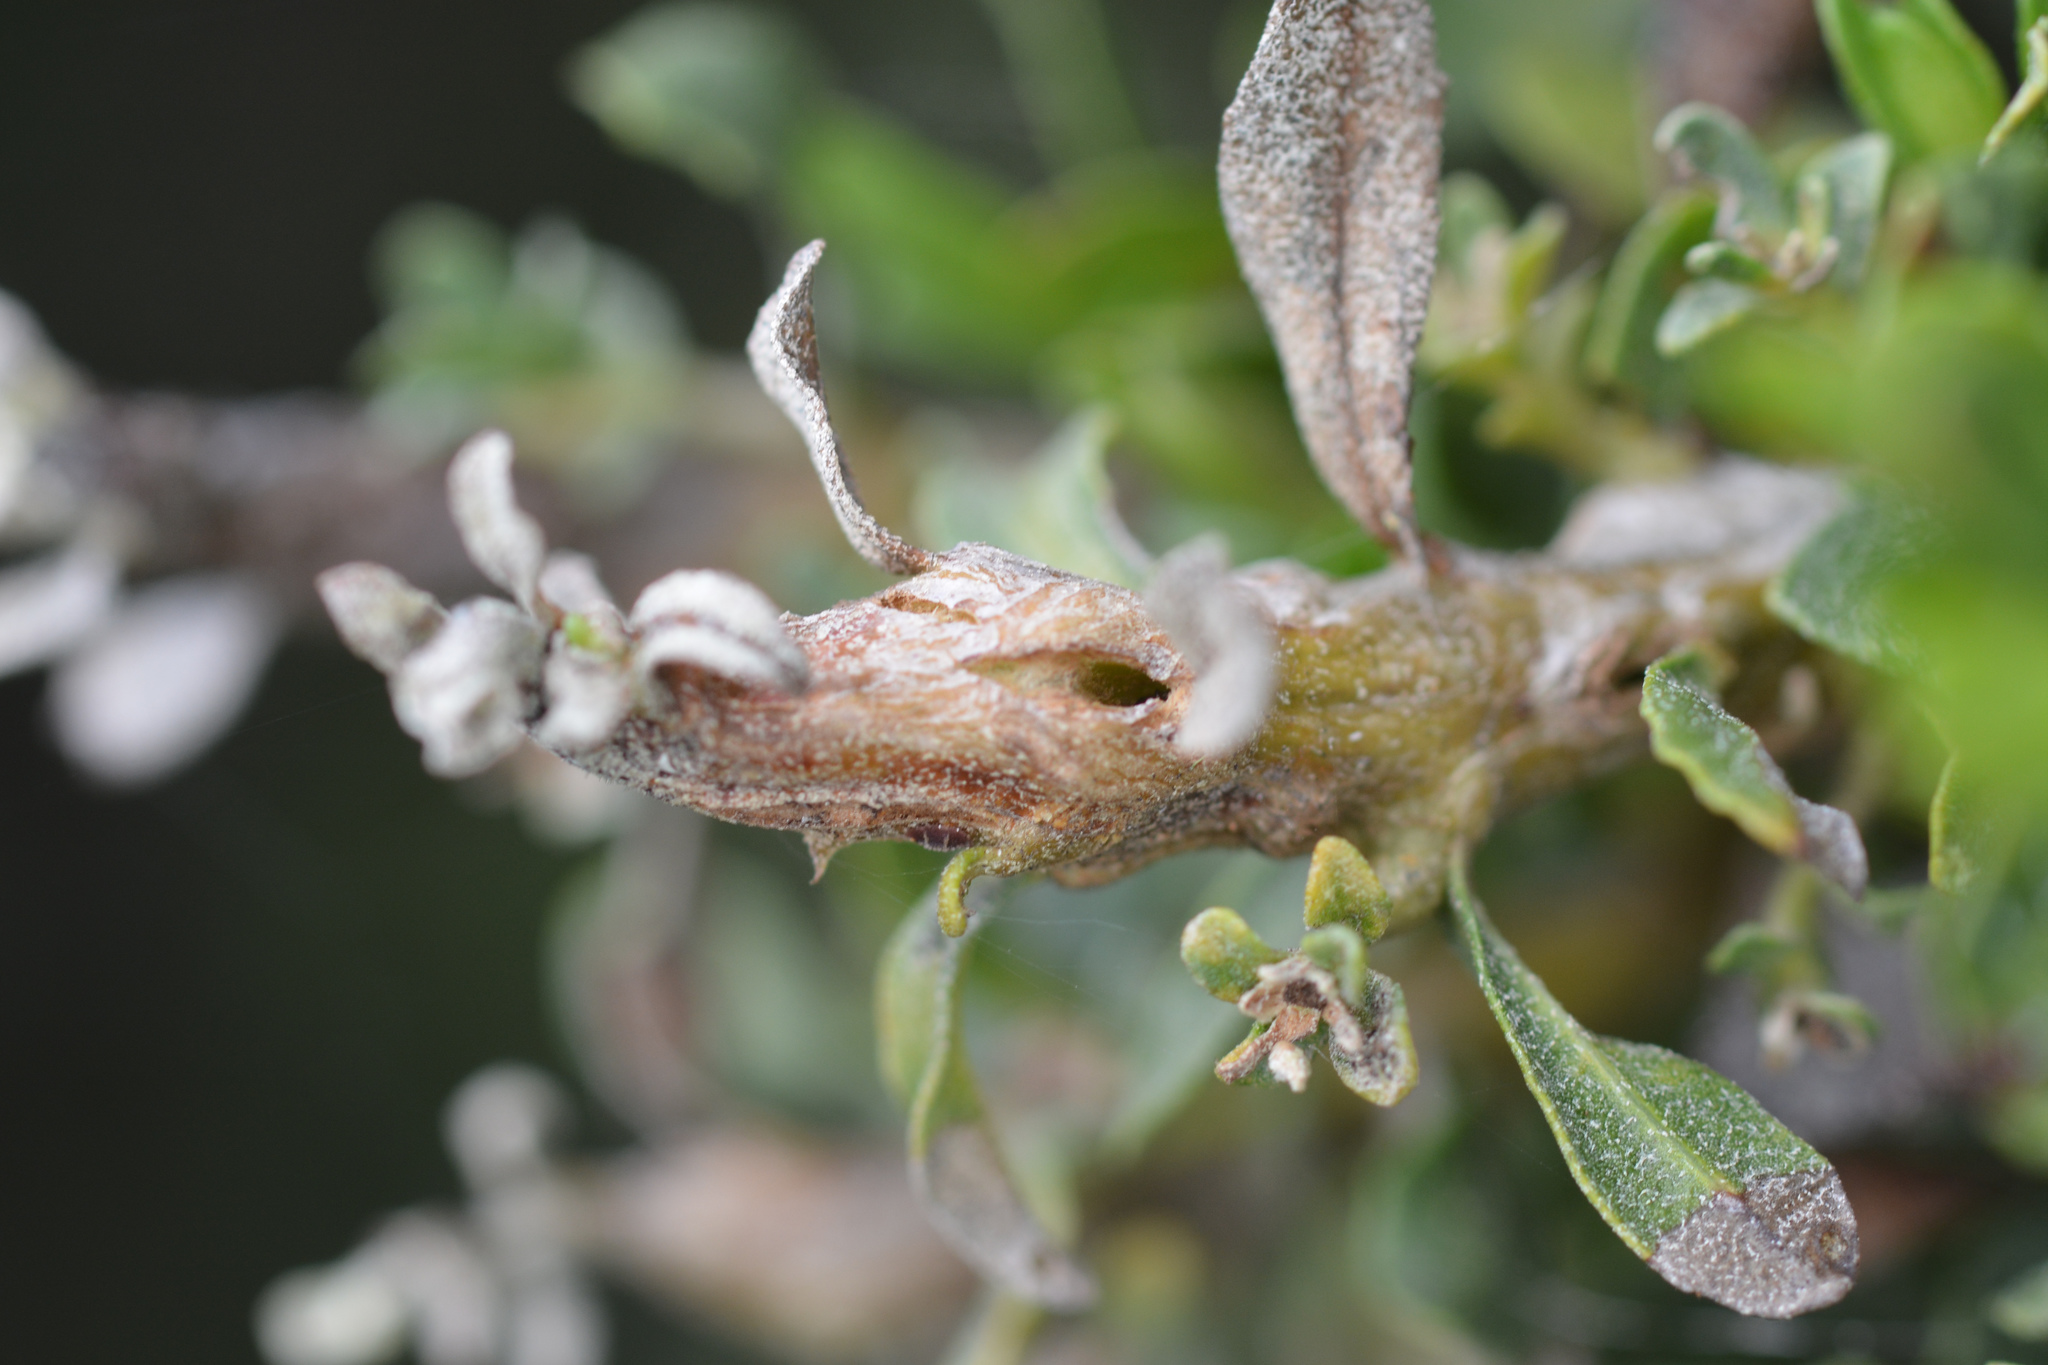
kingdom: Animalia
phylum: Arthropoda
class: Insecta
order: Lepidoptera
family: Gelechiidae
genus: Gnorimoschema
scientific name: Gnorimoschema baccharisella
